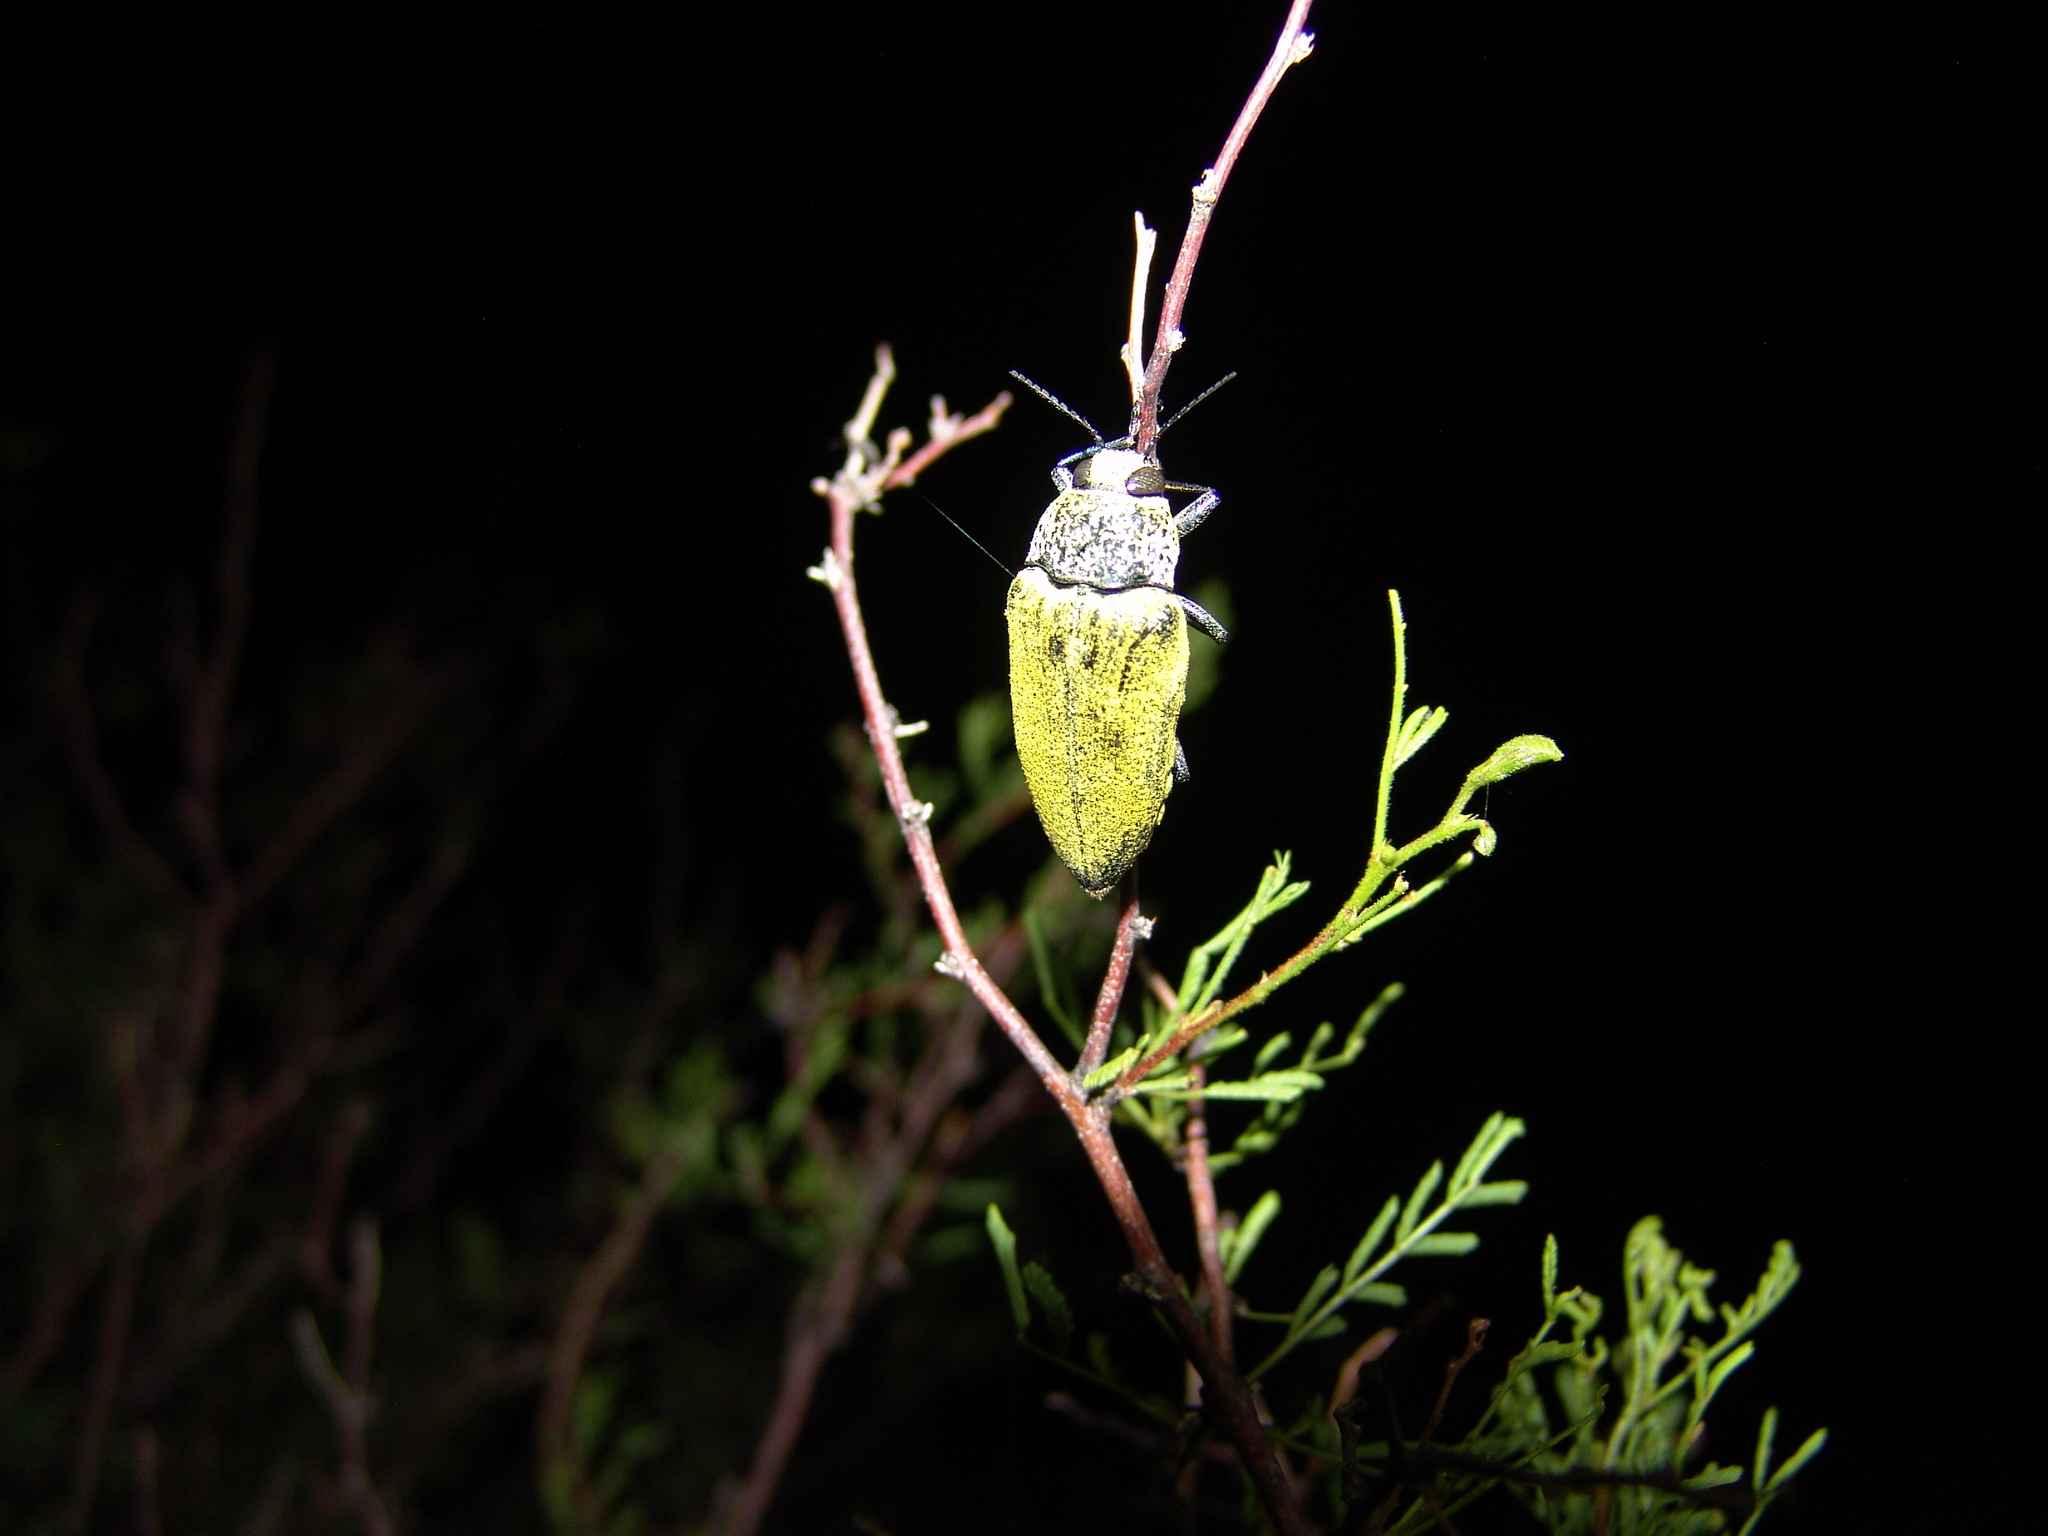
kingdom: Animalia
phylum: Arthropoda
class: Insecta
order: Coleoptera
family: Buprestidae
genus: Gyascutus
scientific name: Gyascutus caelatus
